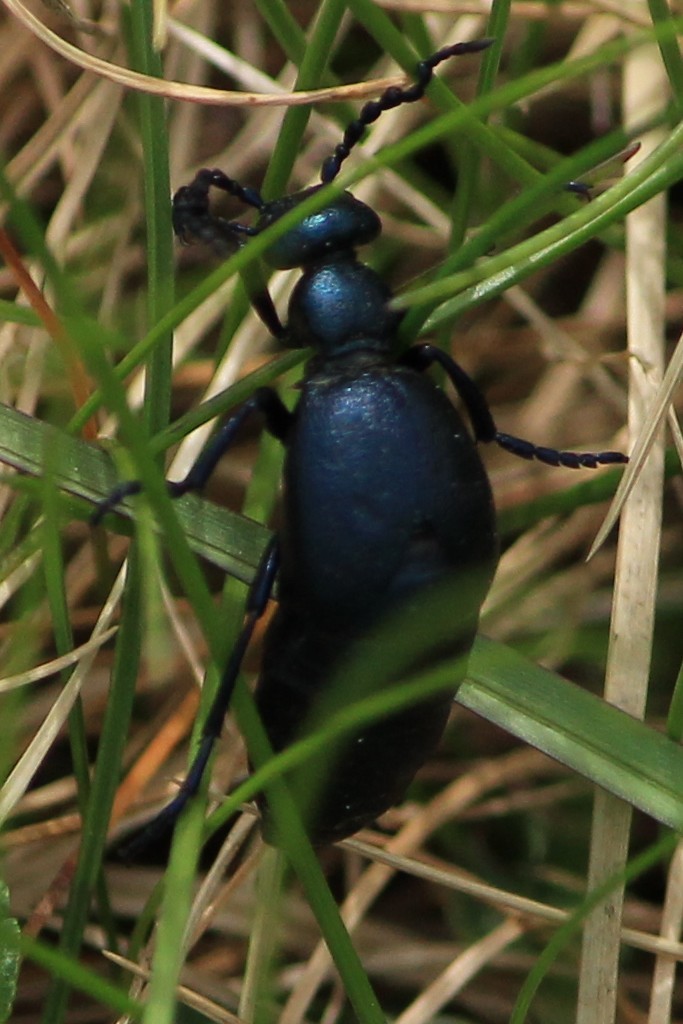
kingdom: Animalia
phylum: Arthropoda
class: Insecta
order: Coleoptera
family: Meloidae
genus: Meloe
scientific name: Meloe violaceus
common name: Violet oil-beetle
